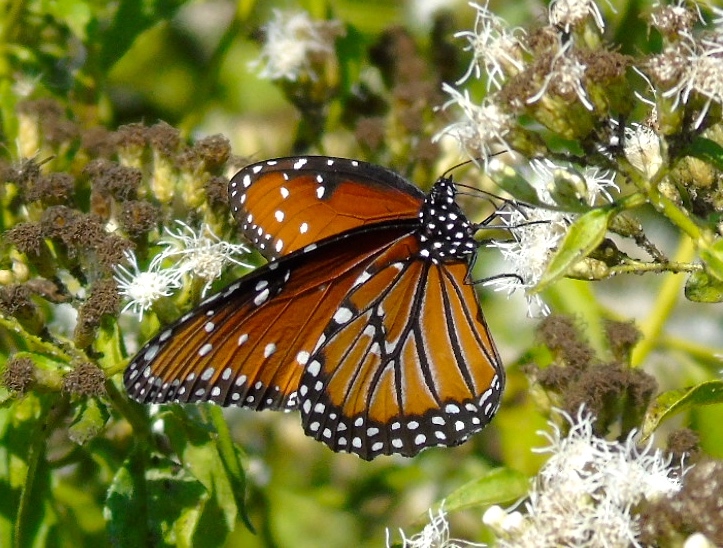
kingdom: Animalia
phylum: Arthropoda
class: Insecta
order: Lepidoptera
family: Nymphalidae
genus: Danaus
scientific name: Danaus gilippus
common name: Queen
